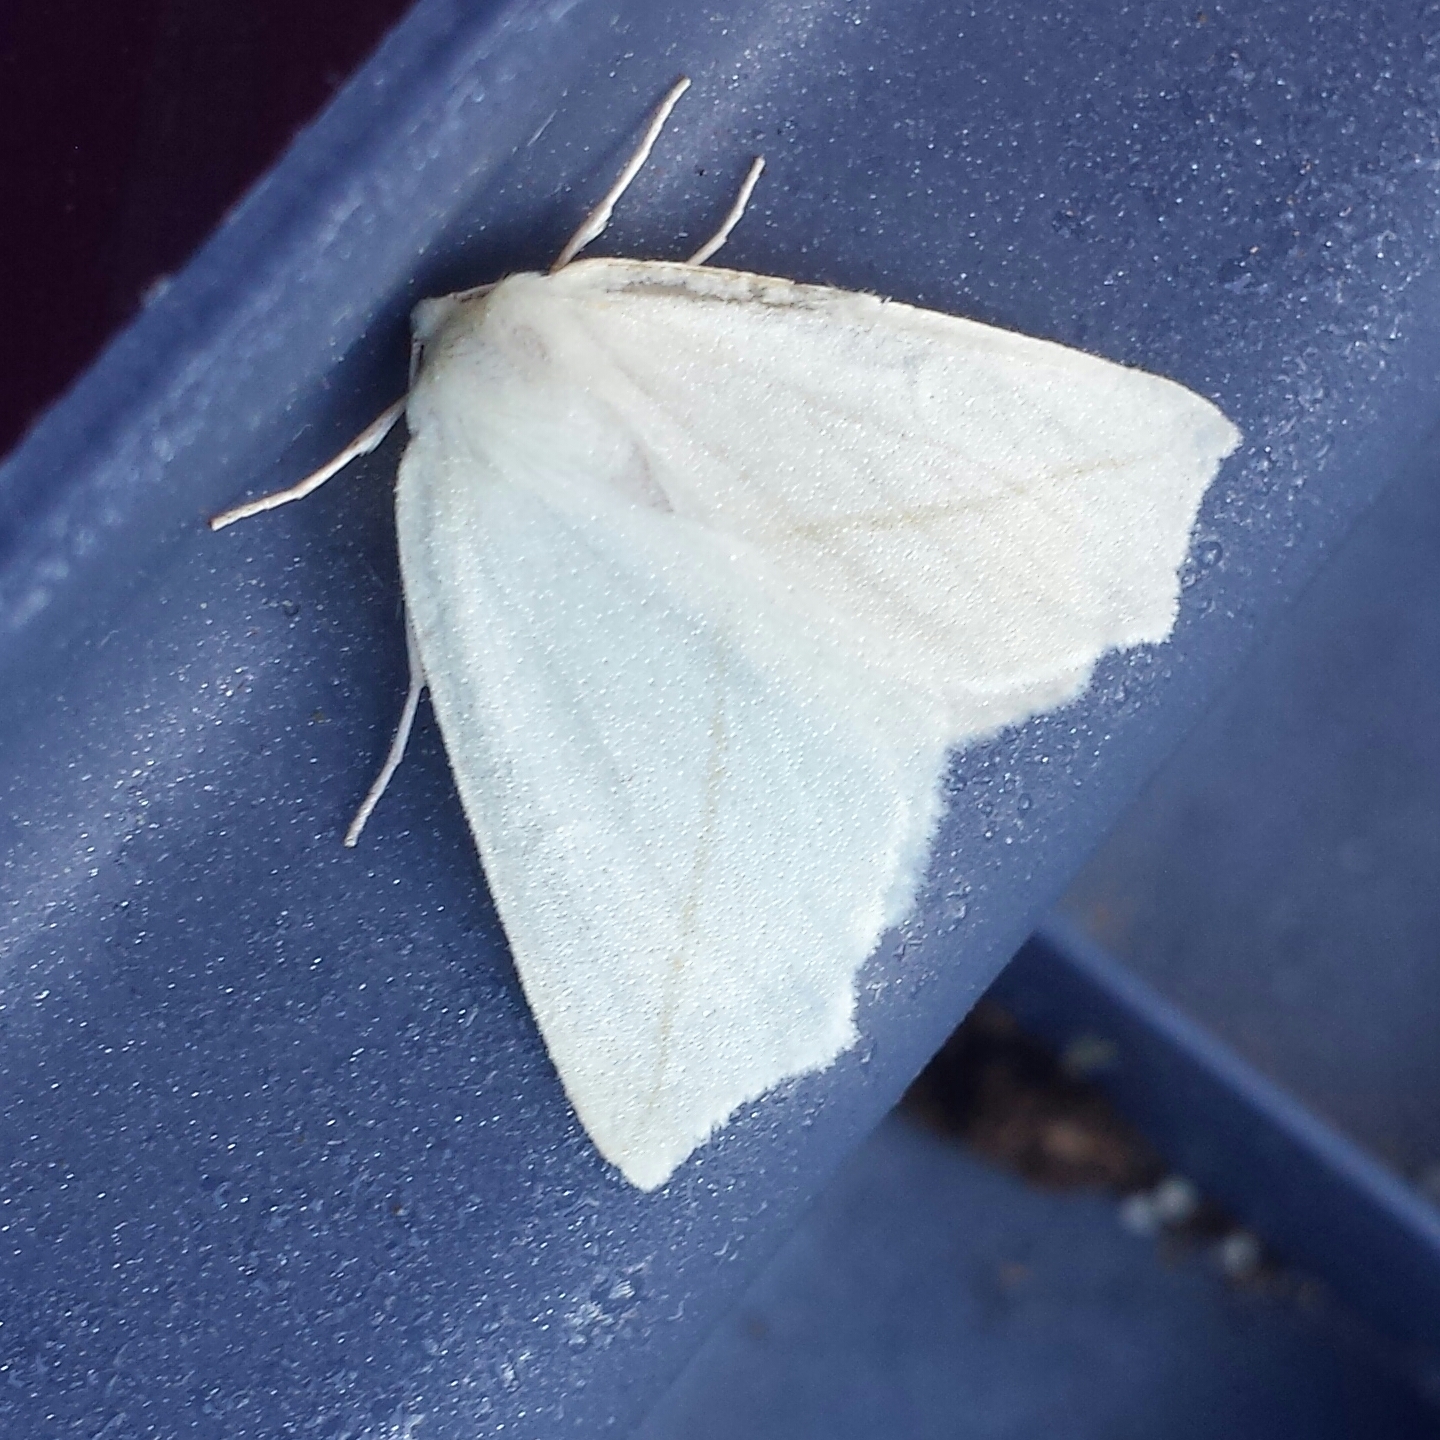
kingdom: Animalia
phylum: Arthropoda
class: Insecta
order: Lepidoptera
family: Geometridae
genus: Tetracis
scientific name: Tetracis cachexiata
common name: White slant-line
